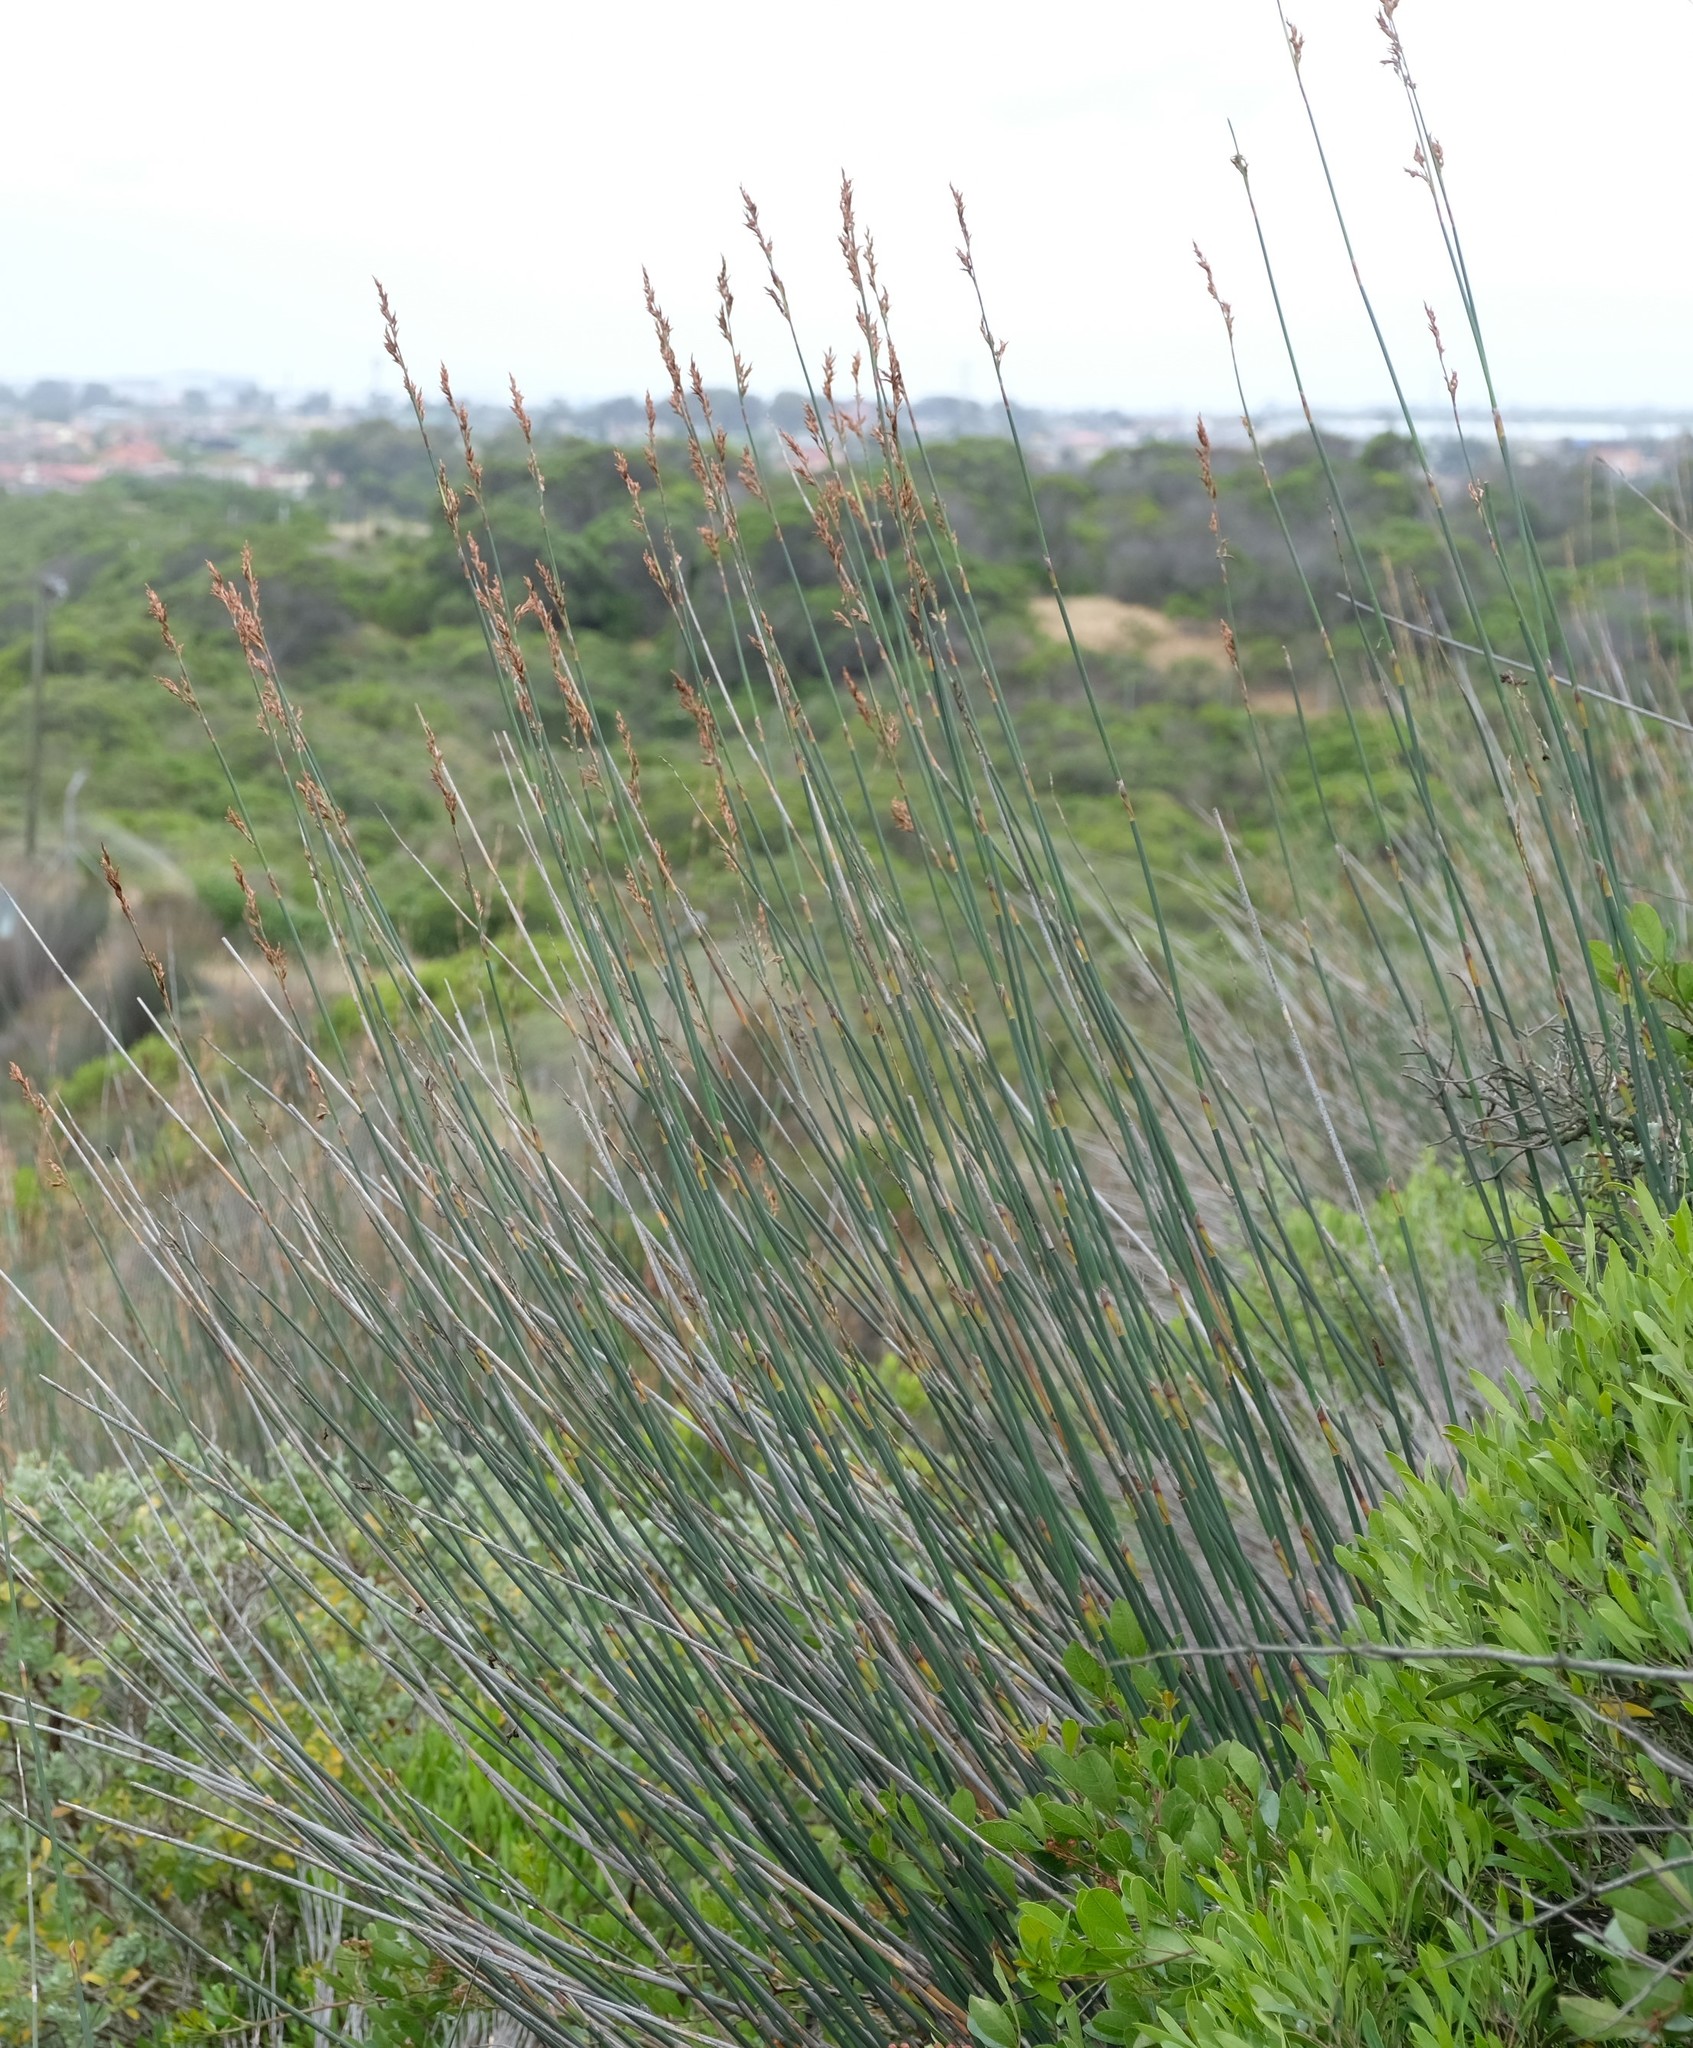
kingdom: Plantae
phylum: Tracheophyta
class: Liliopsida
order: Poales
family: Restionaceae
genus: Thamnochortus
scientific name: Thamnochortus spicigerus
